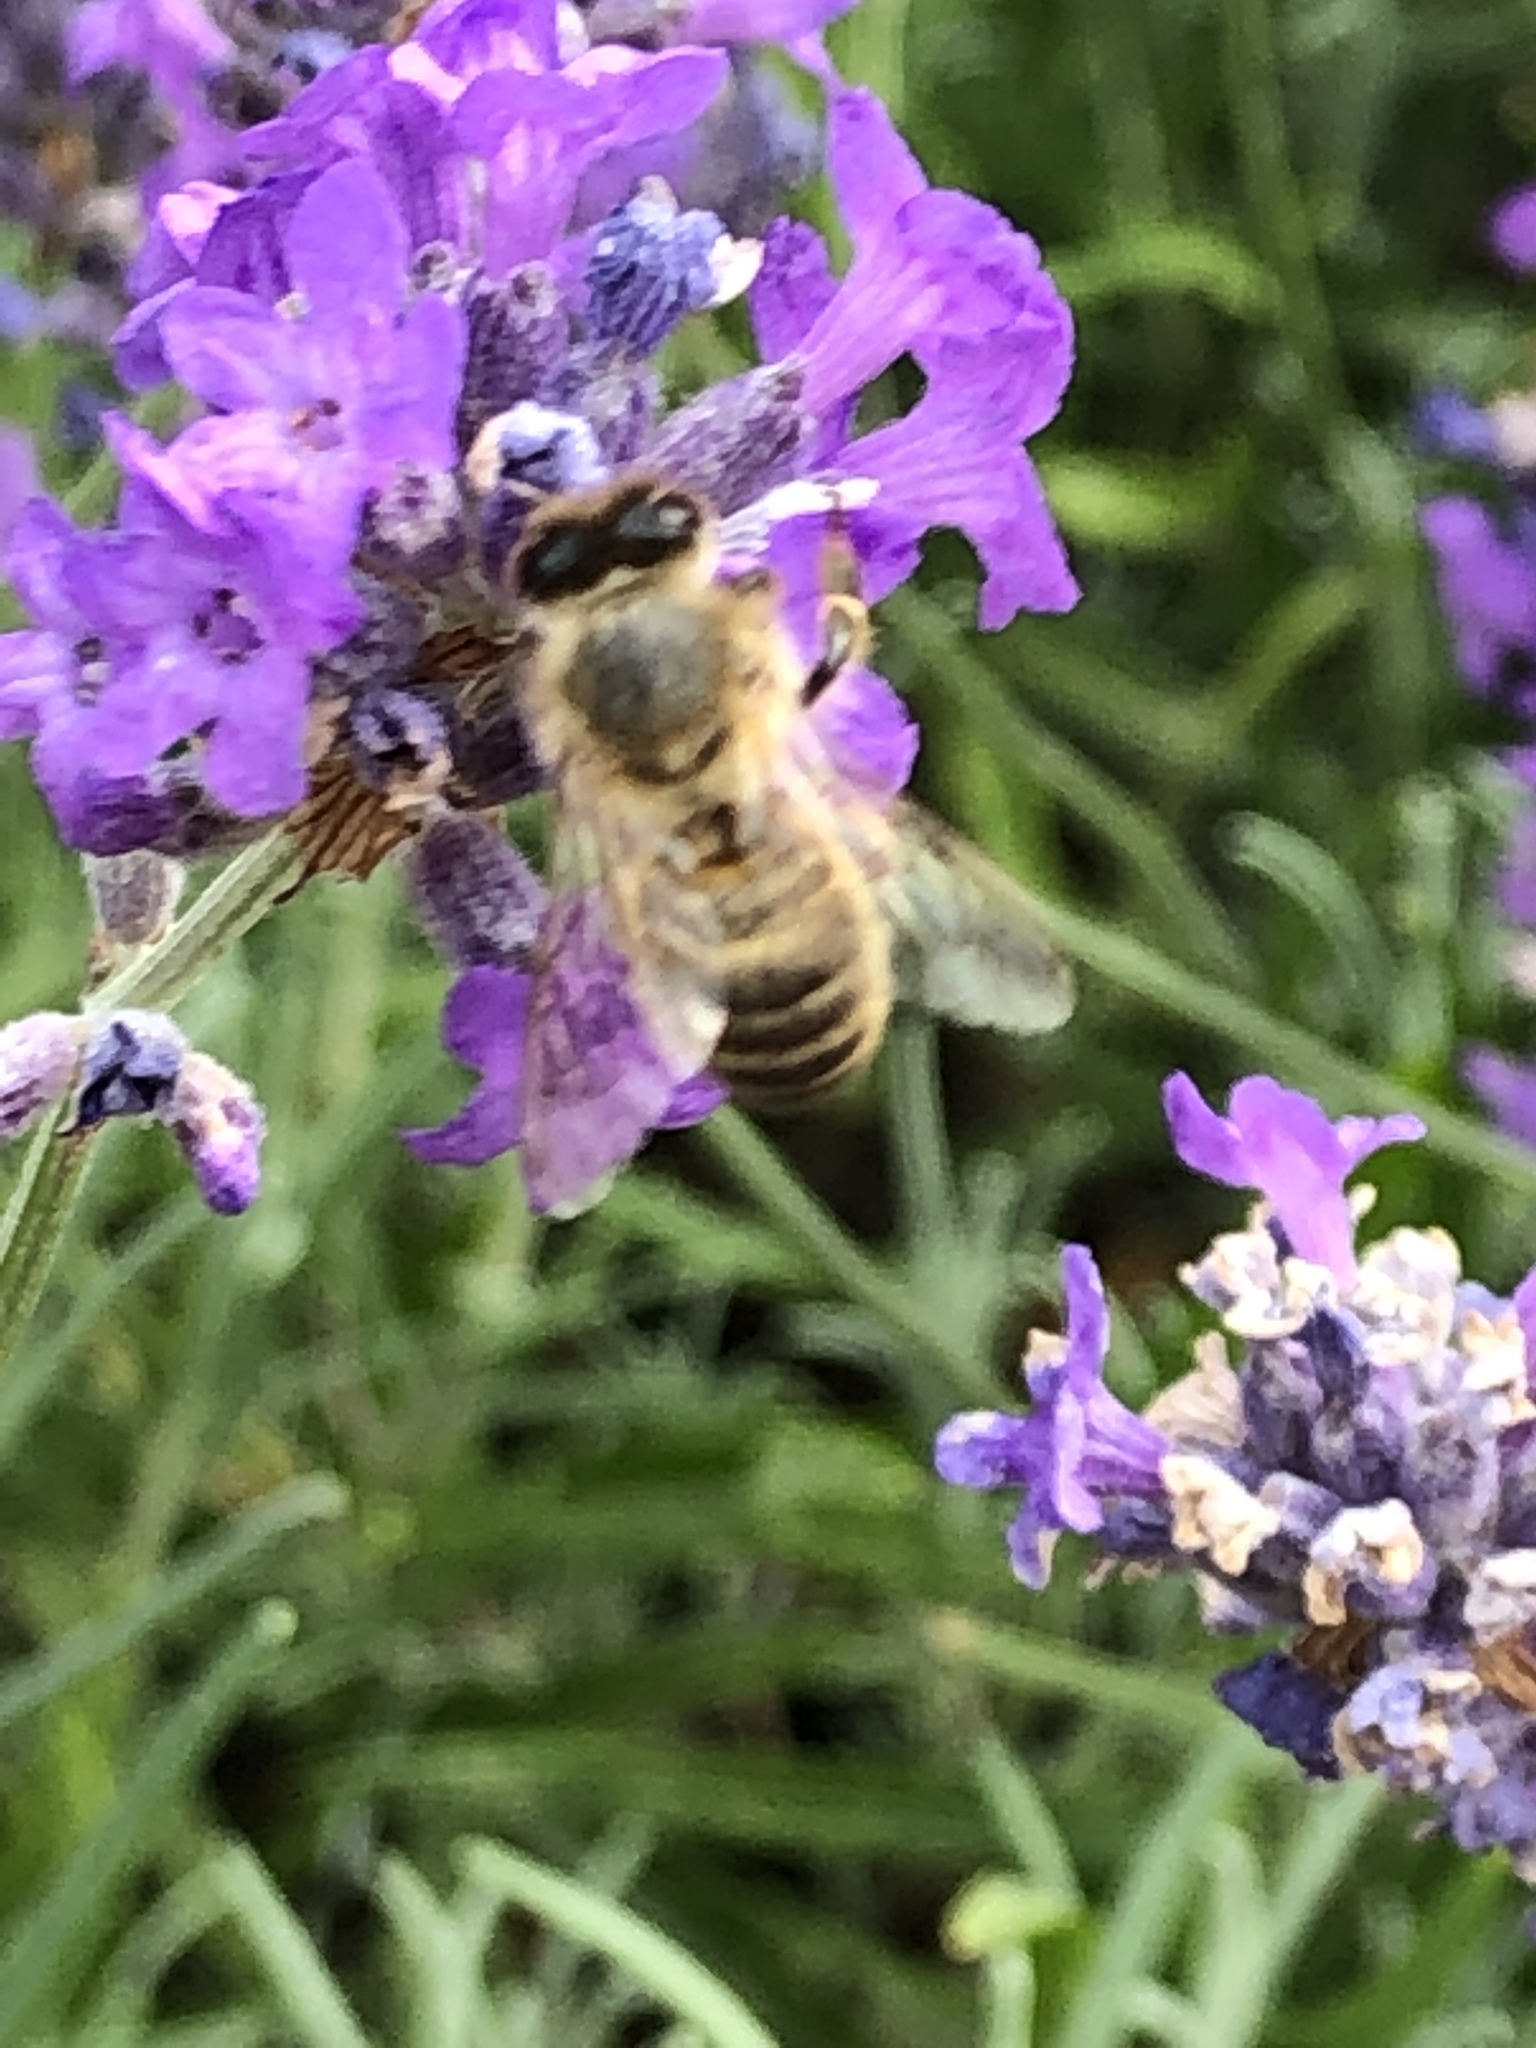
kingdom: Animalia
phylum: Arthropoda
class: Insecta
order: Hymenoptera
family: Apidae
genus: Apis
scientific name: Apis mellifera
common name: Honey bee
